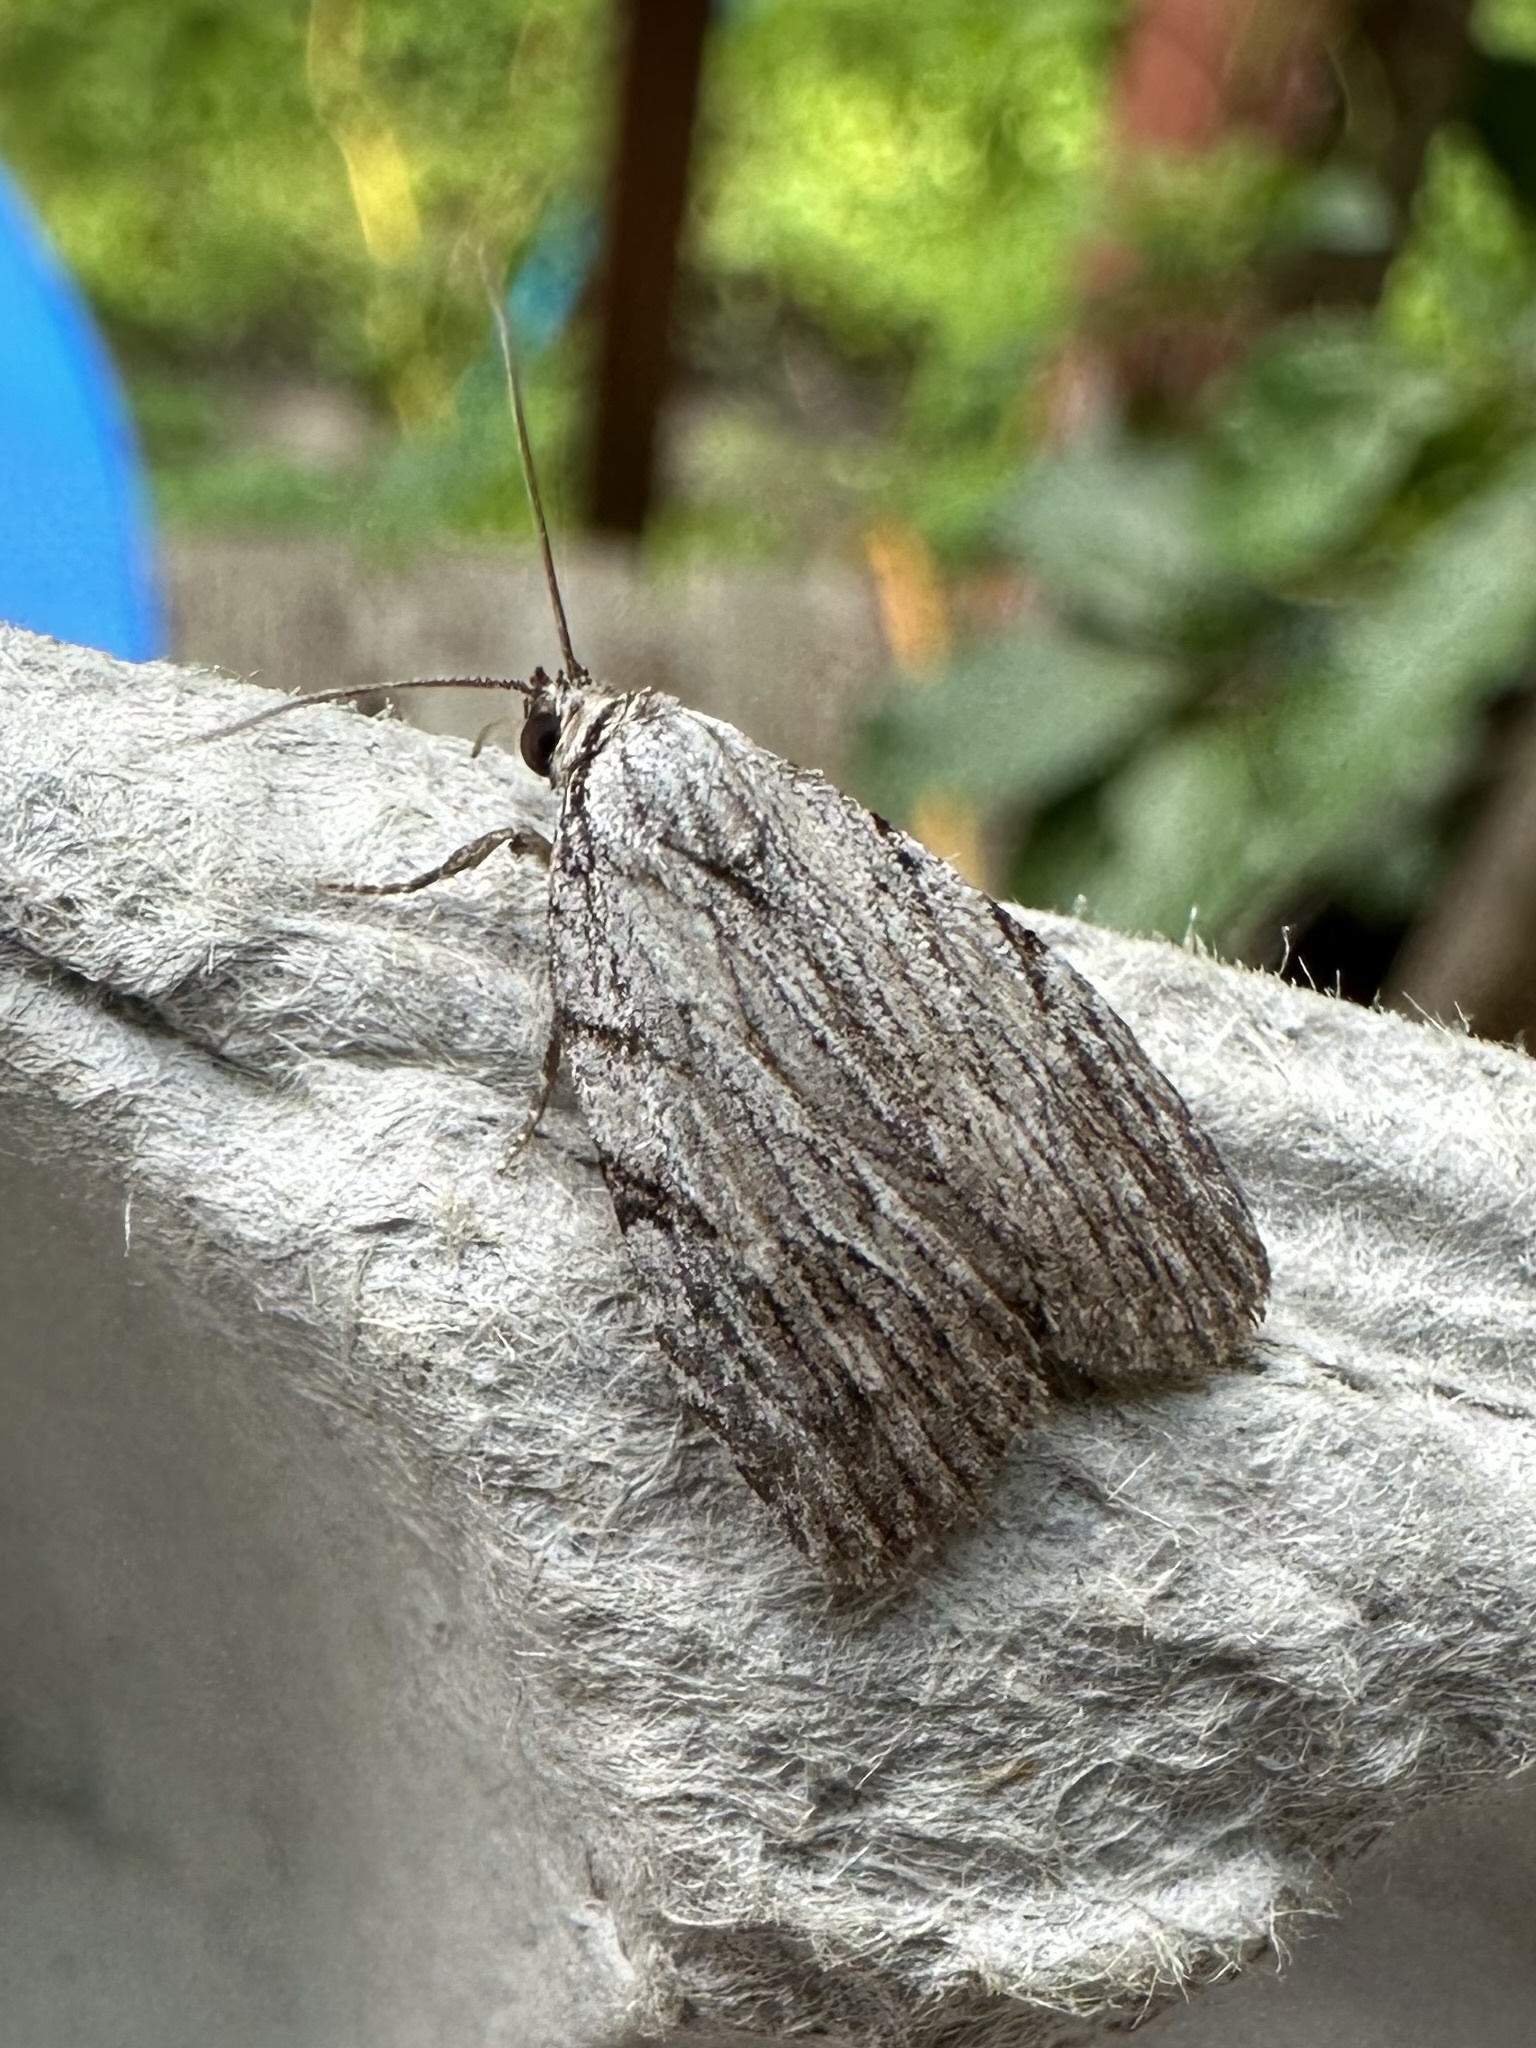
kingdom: Animalia
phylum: Arthropoda
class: Insecta
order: Lepidoptera
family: Noctuidae
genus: Balsa
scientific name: Balsa tristrigella
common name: Three-lined balsa moth
